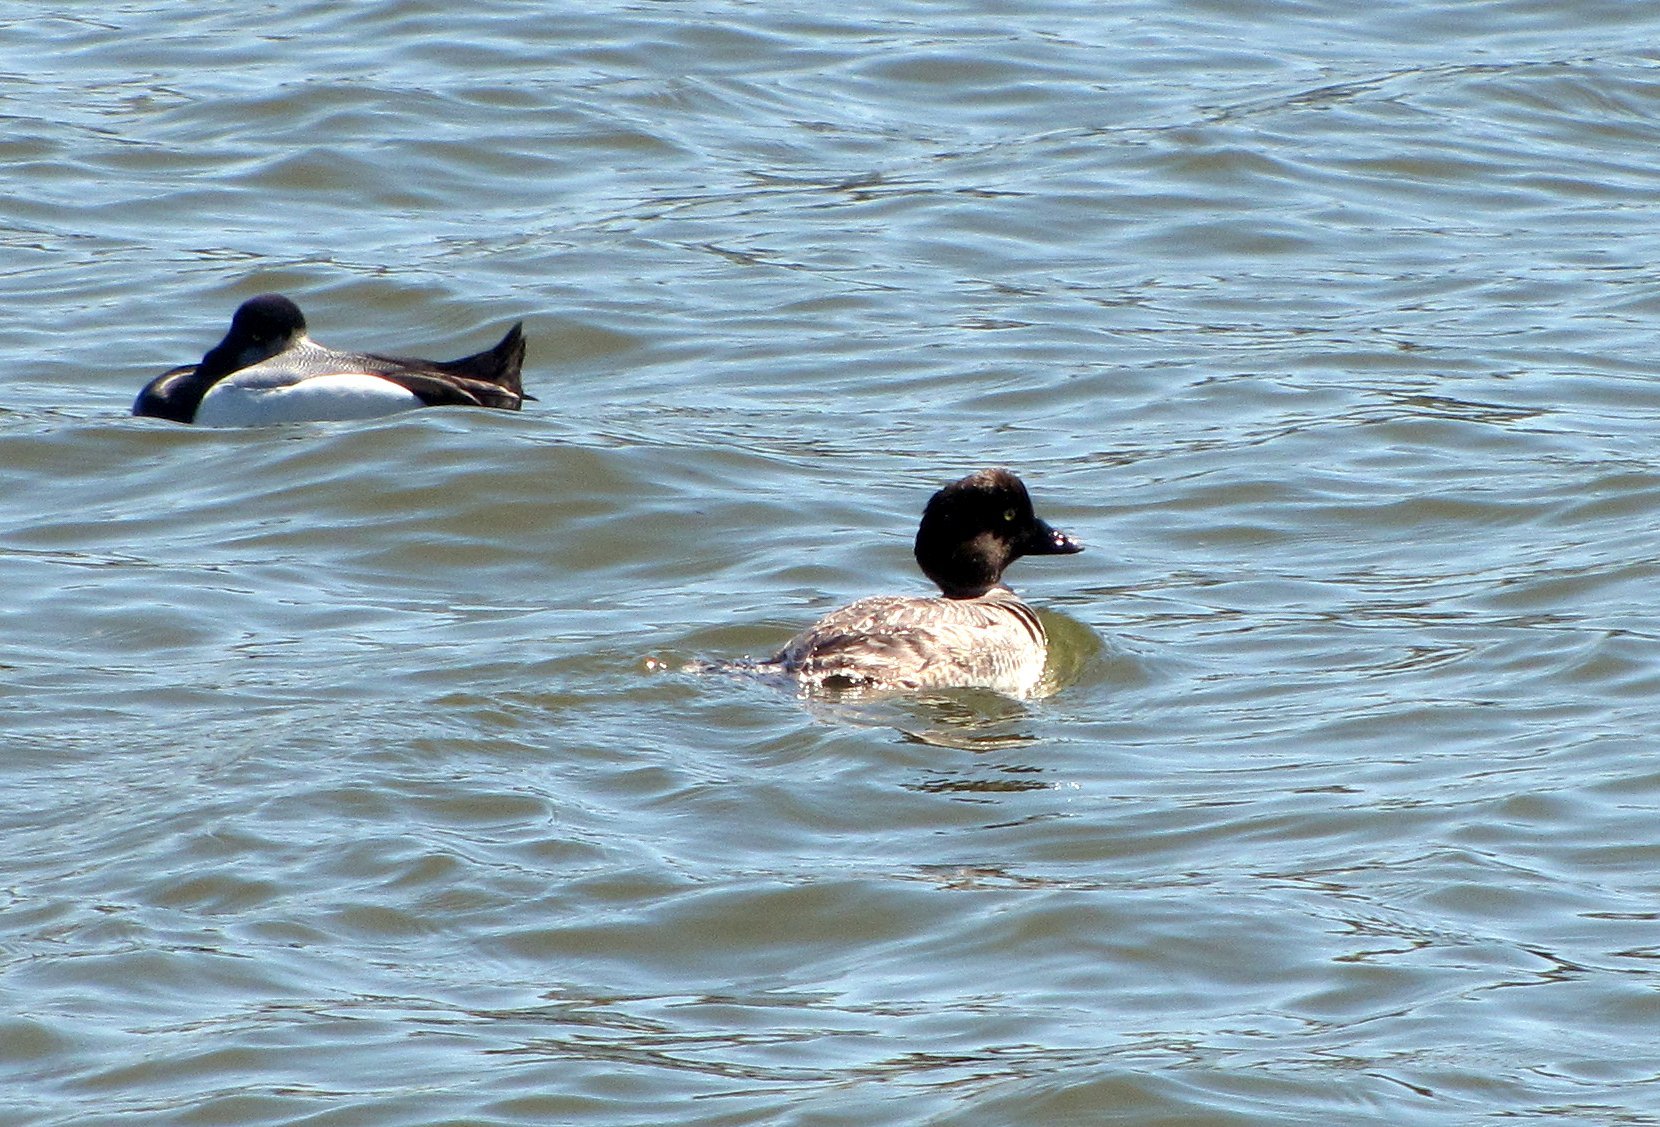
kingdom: Animalia
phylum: Chordata
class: Aves
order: Anseriformes
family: Anatidae
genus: Bucephala
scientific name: Bucephala clangula
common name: Common goldeneye
